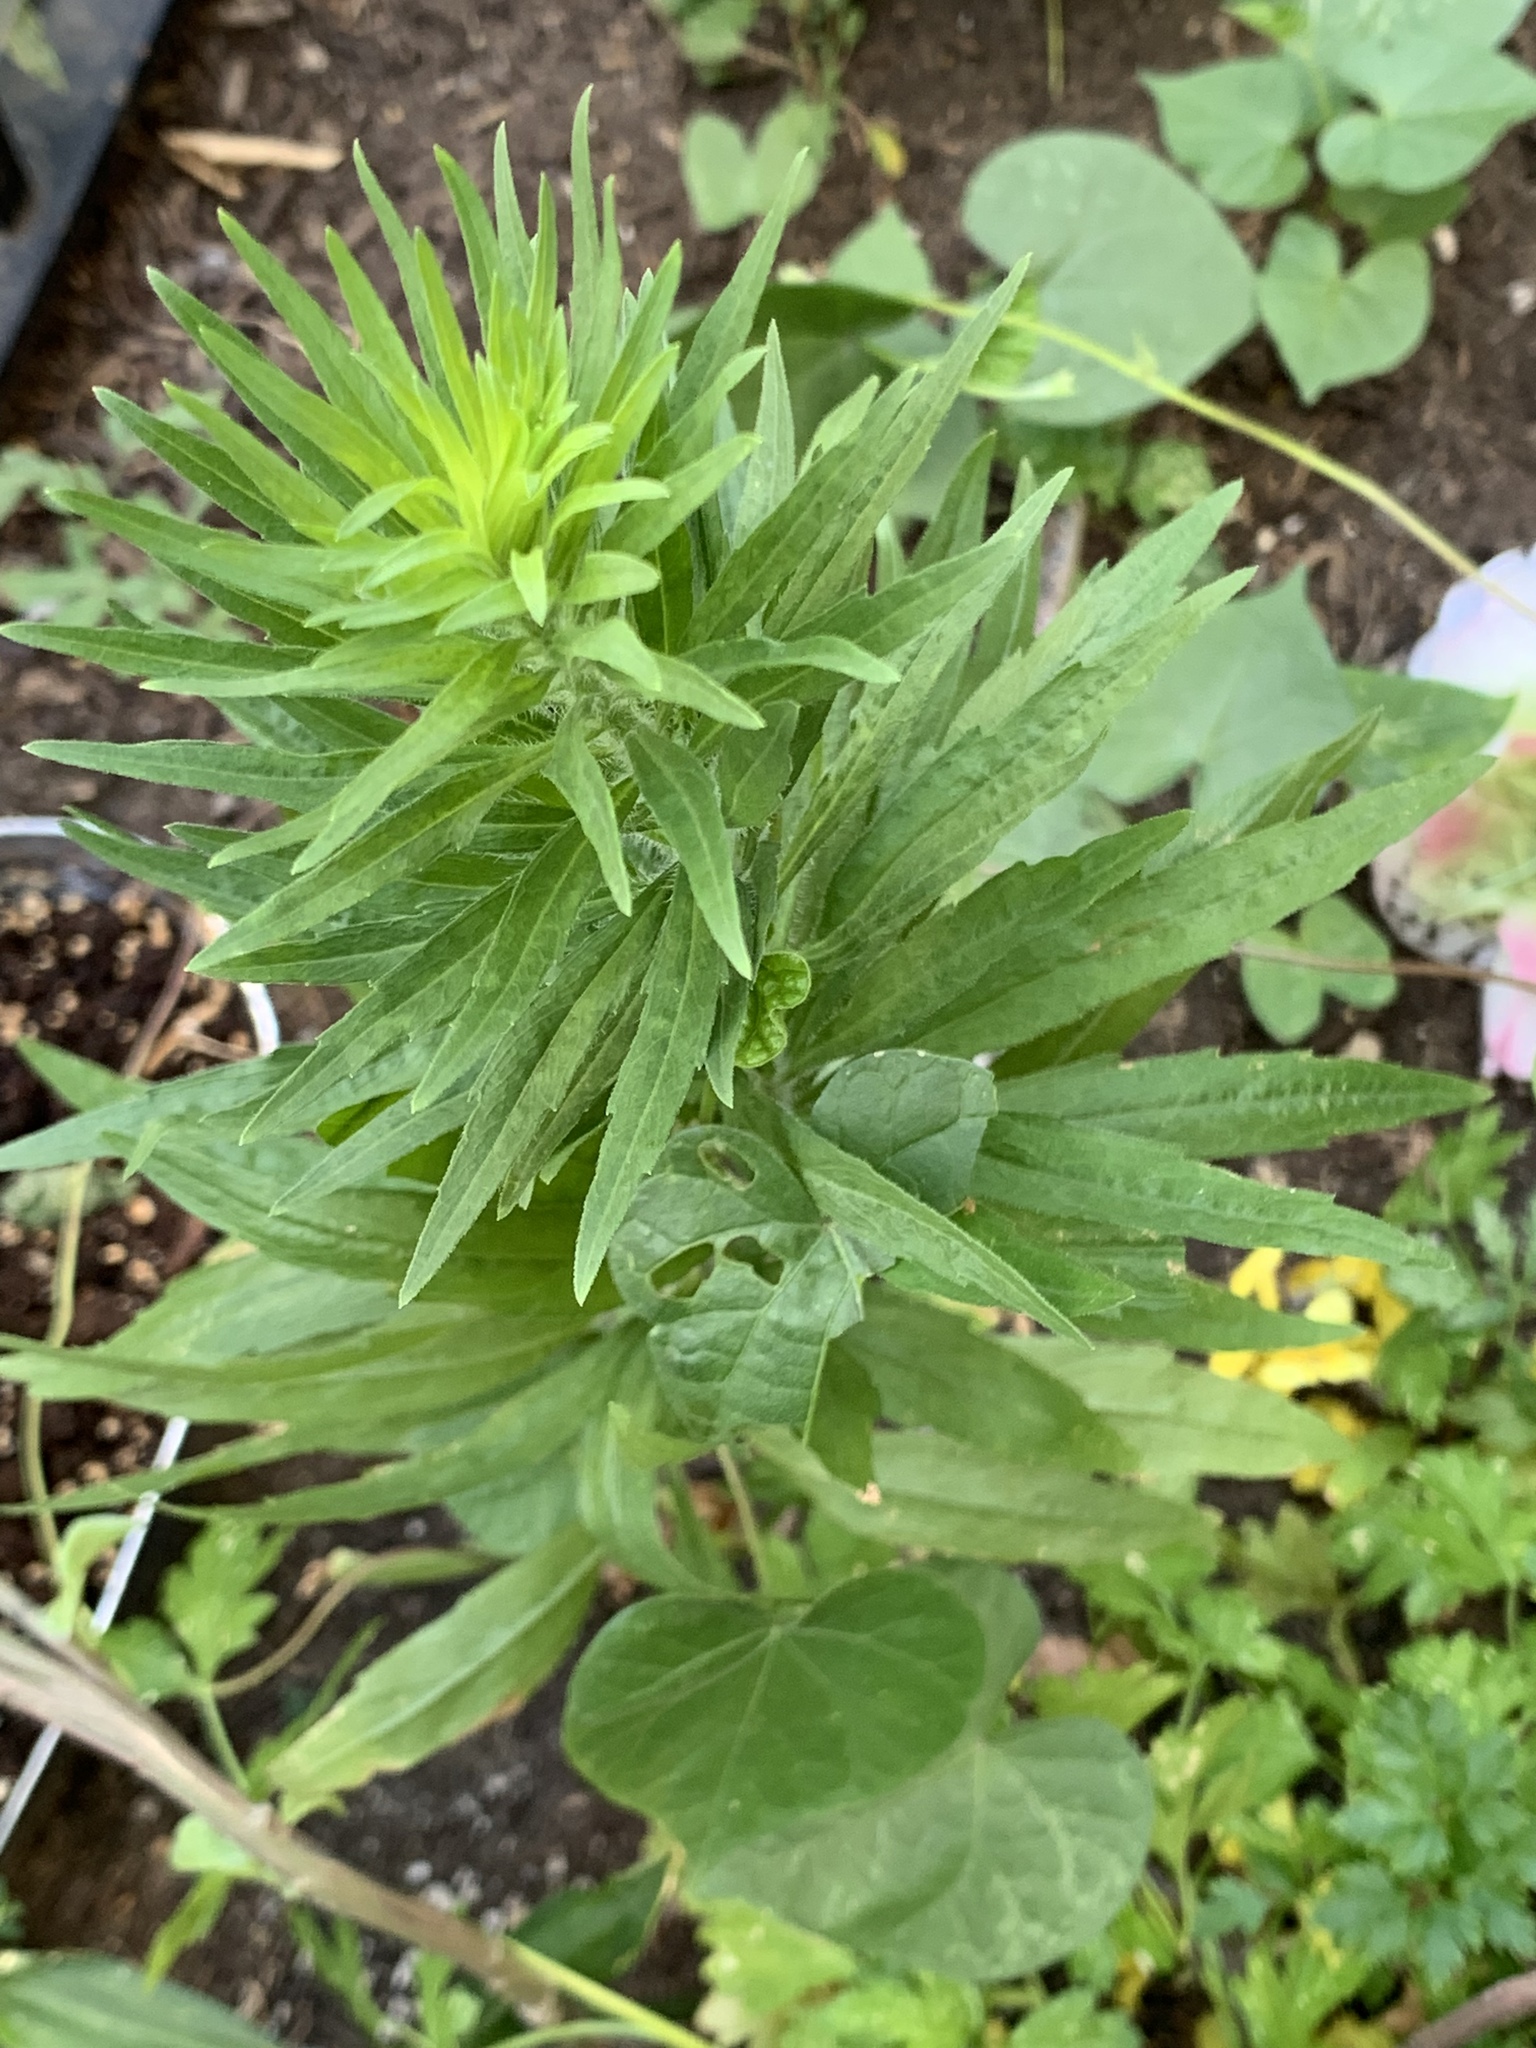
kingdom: Plantae
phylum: Tracheophyta
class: Magnoliopsida
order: Asterales
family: Asteraceae
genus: Erigeron
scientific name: Erigeron canadensis
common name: Canadian fleabane
